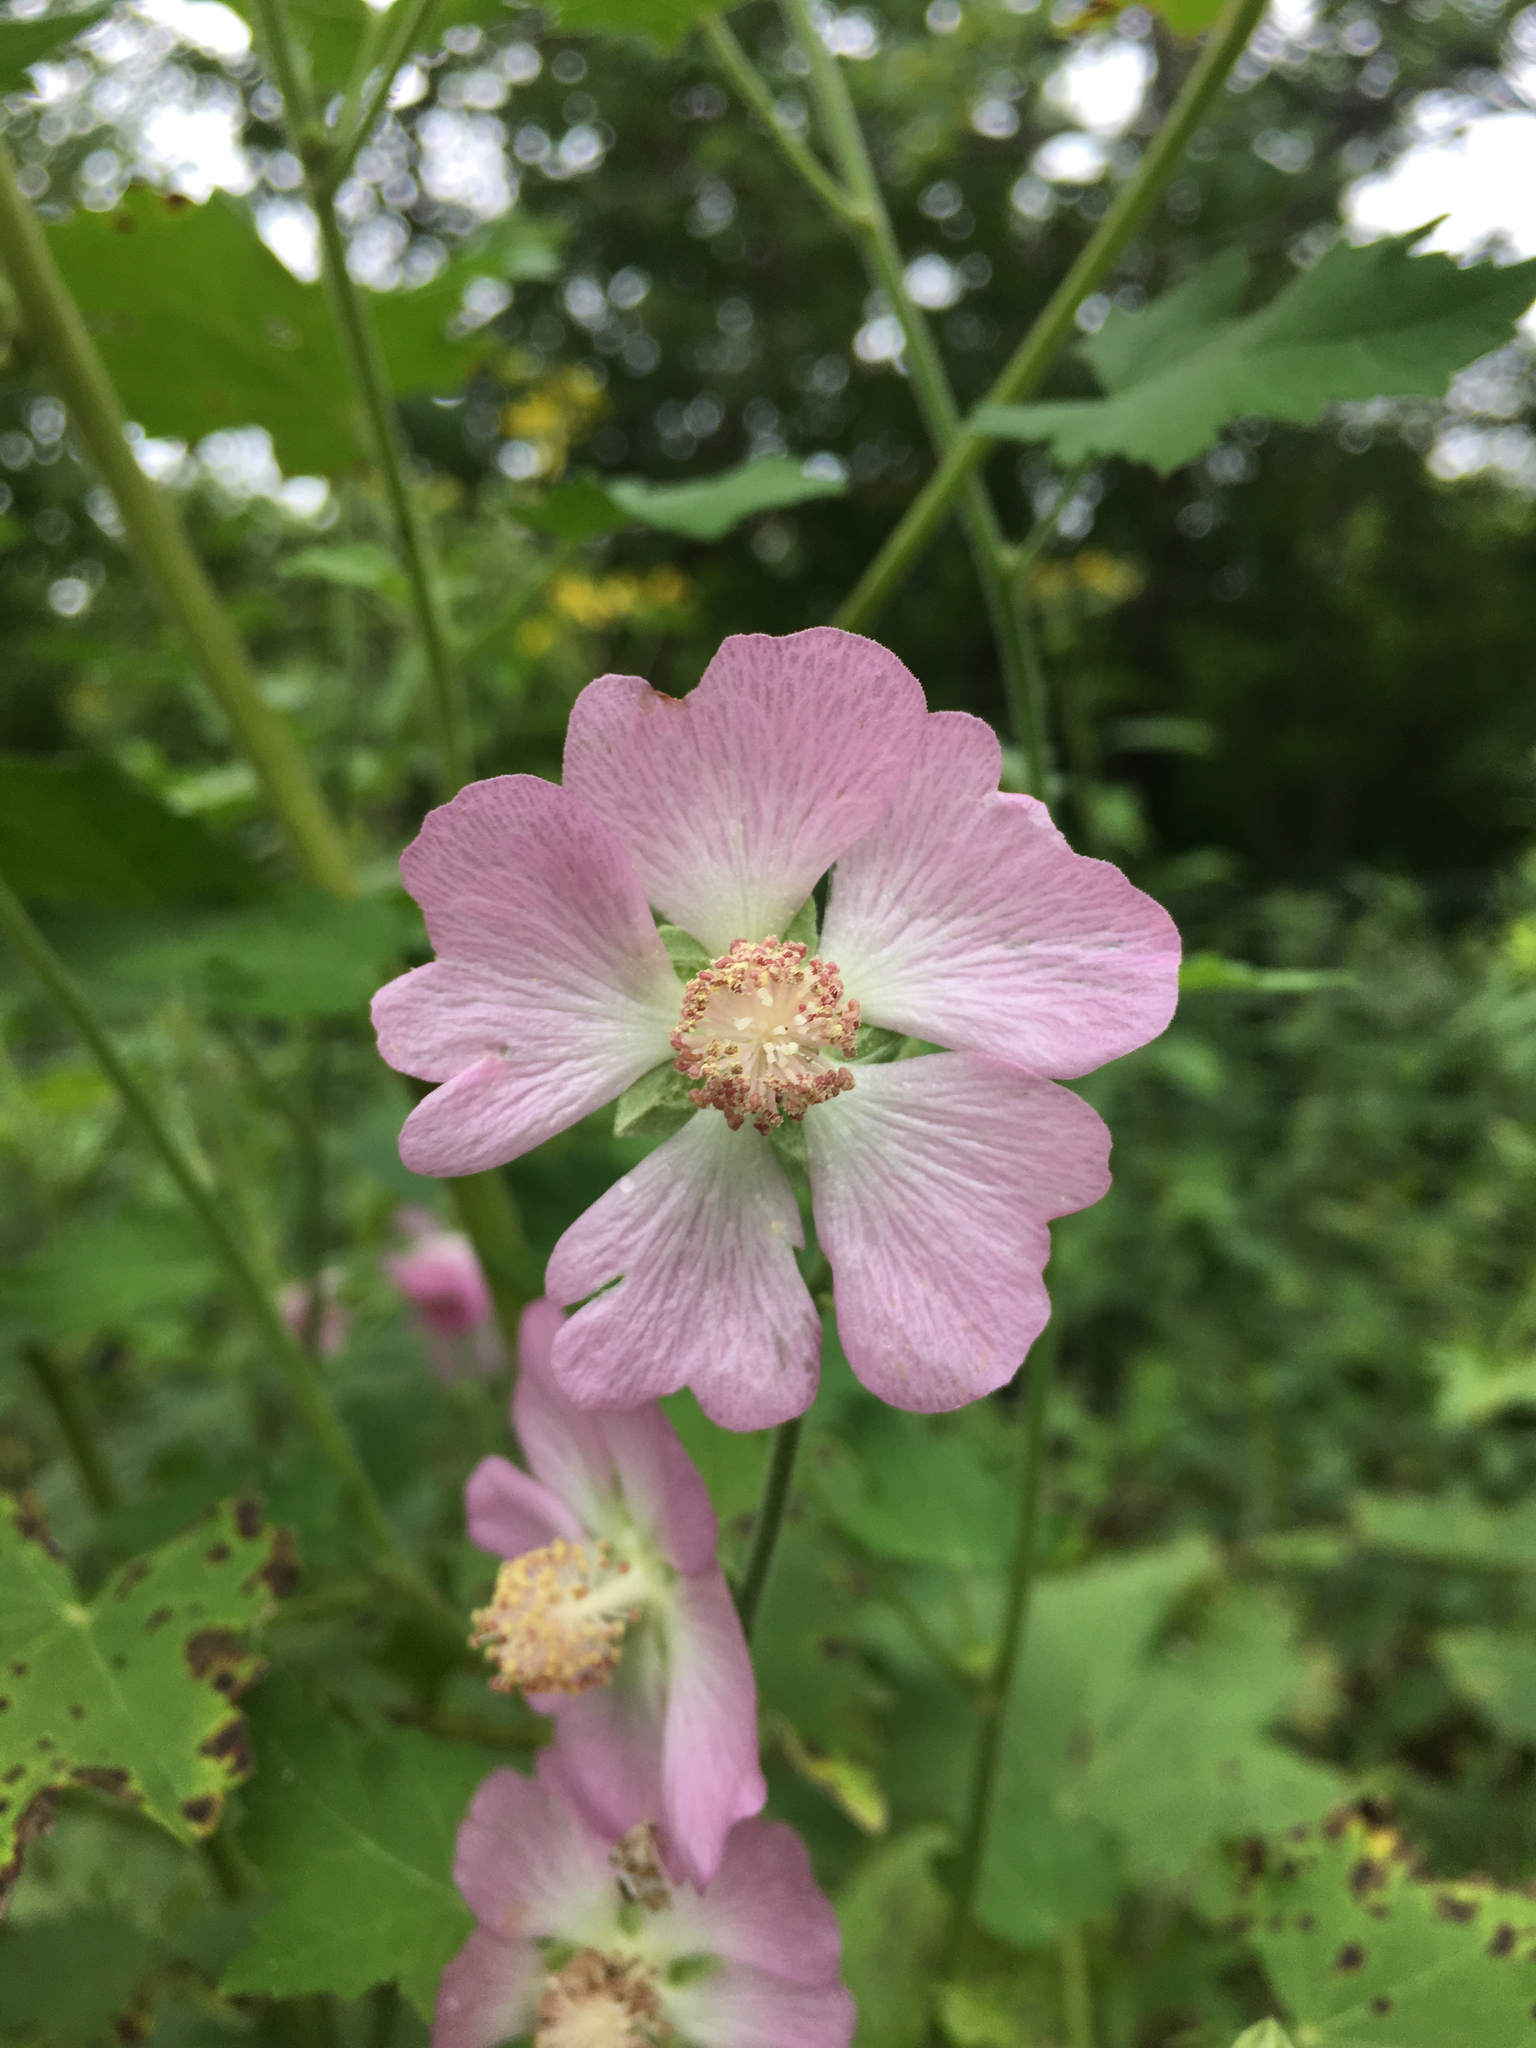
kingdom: Plantae
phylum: Tracheophyta
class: Magnoliopsida
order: Malvales
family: Malvaceae
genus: Iliamna
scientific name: Iliamna remota
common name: Kankakee globe-mallow
